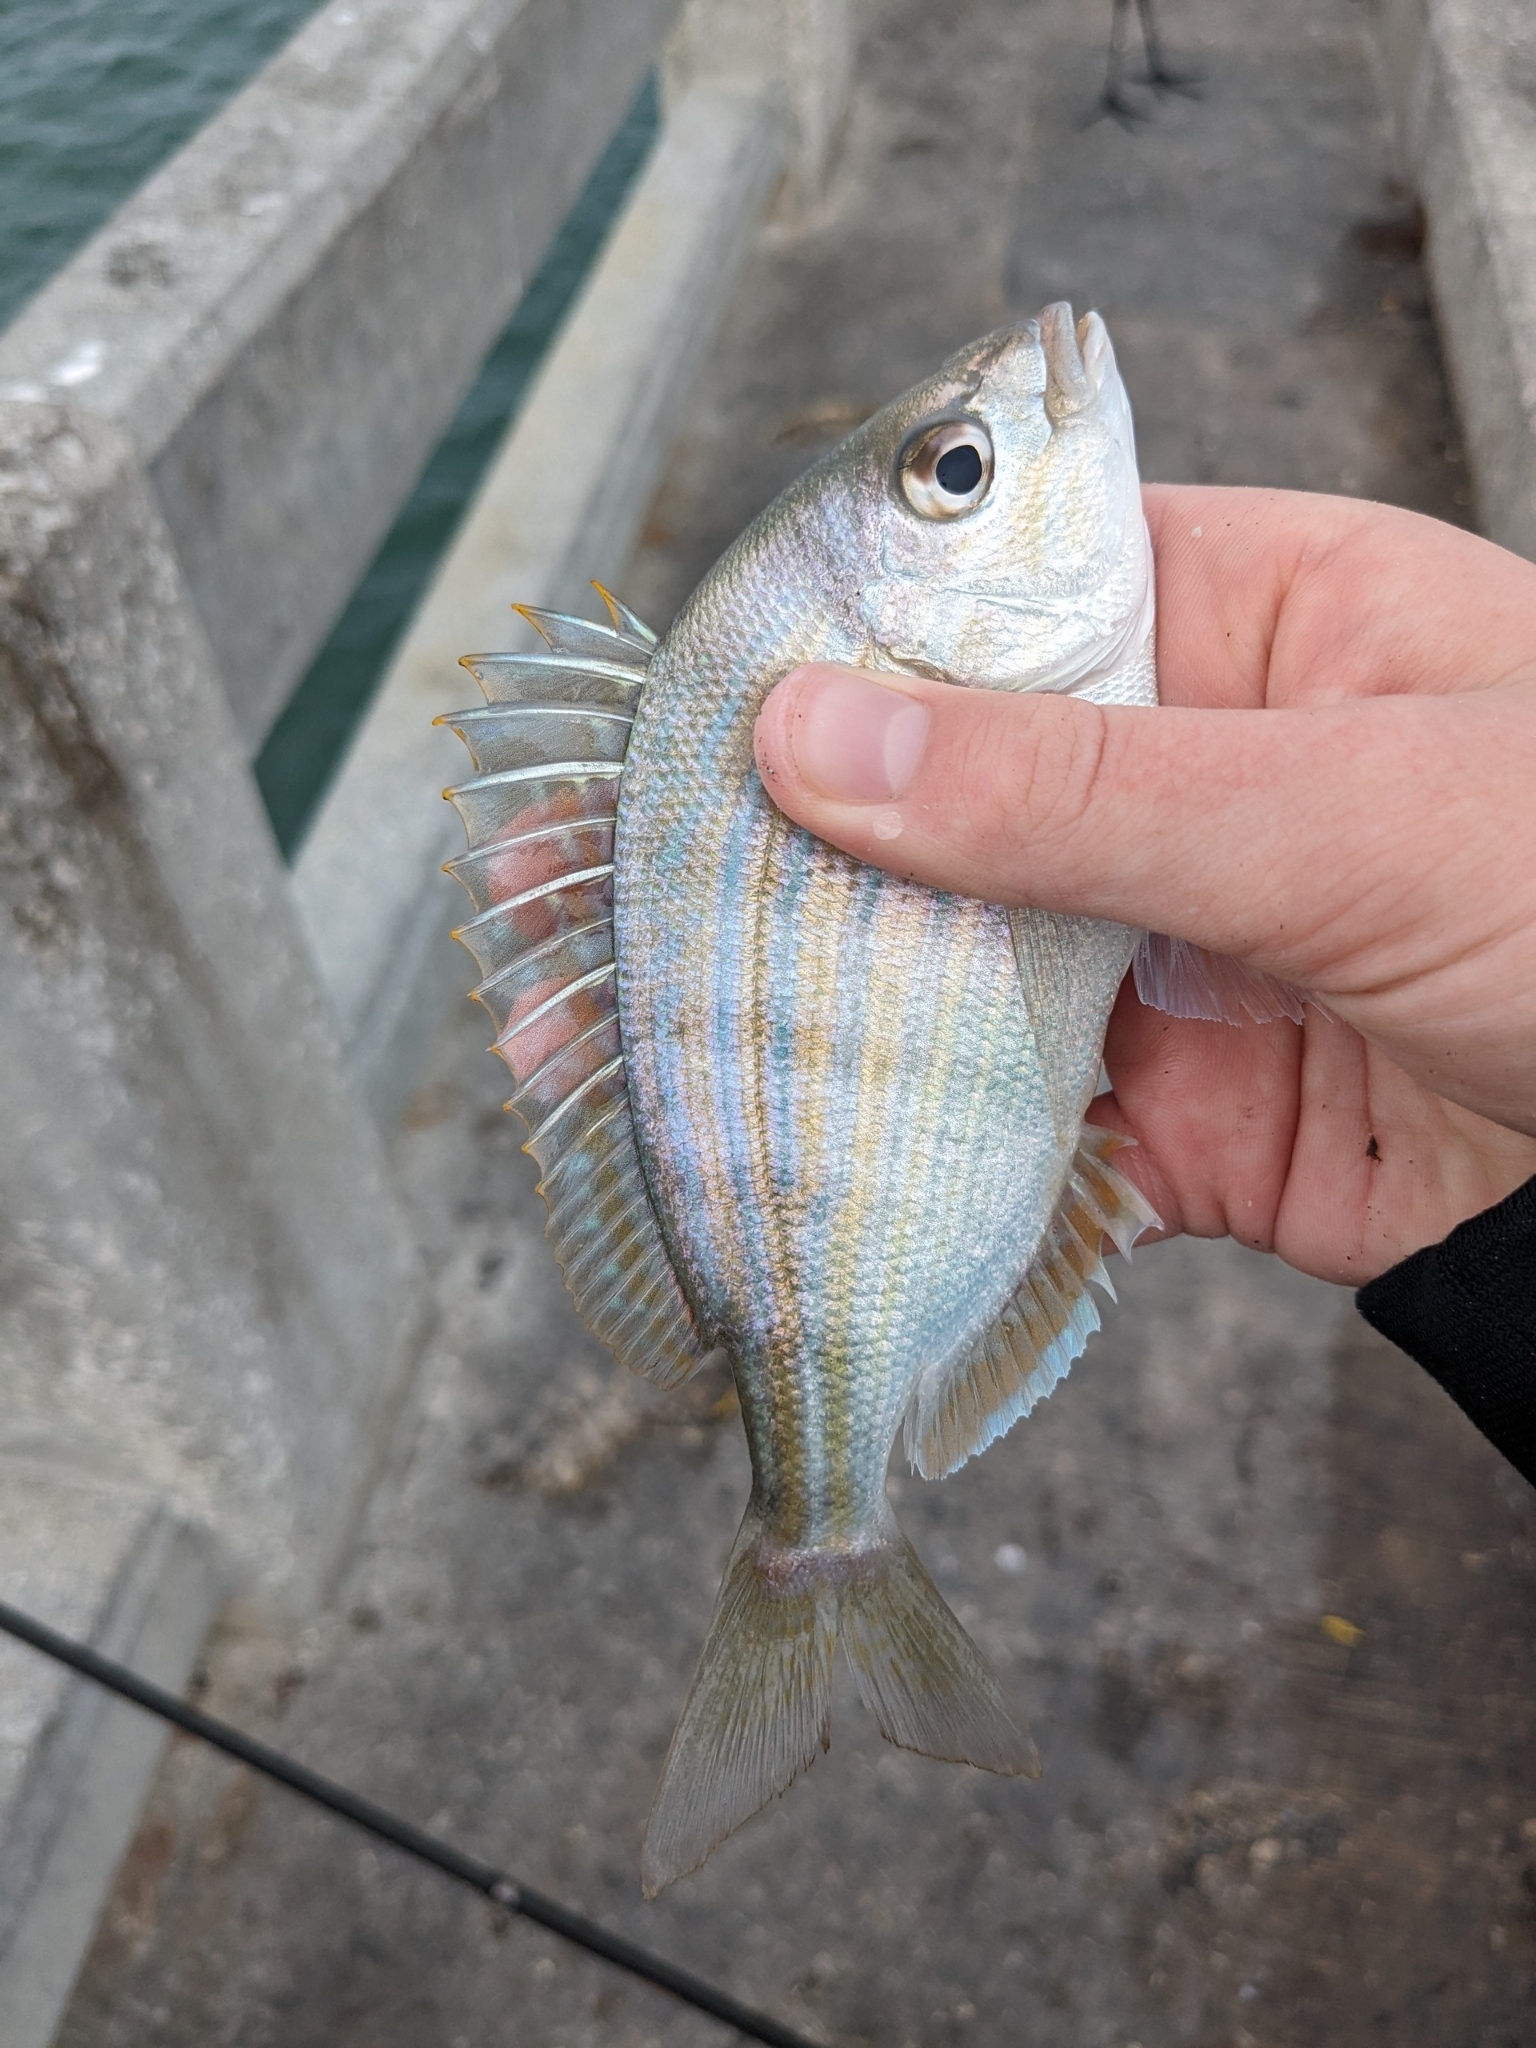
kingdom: Animalia
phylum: Chordata
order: Perciformes
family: Sparidae
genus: Lagodon
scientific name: Lagodon rhomboides
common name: Pinfish
